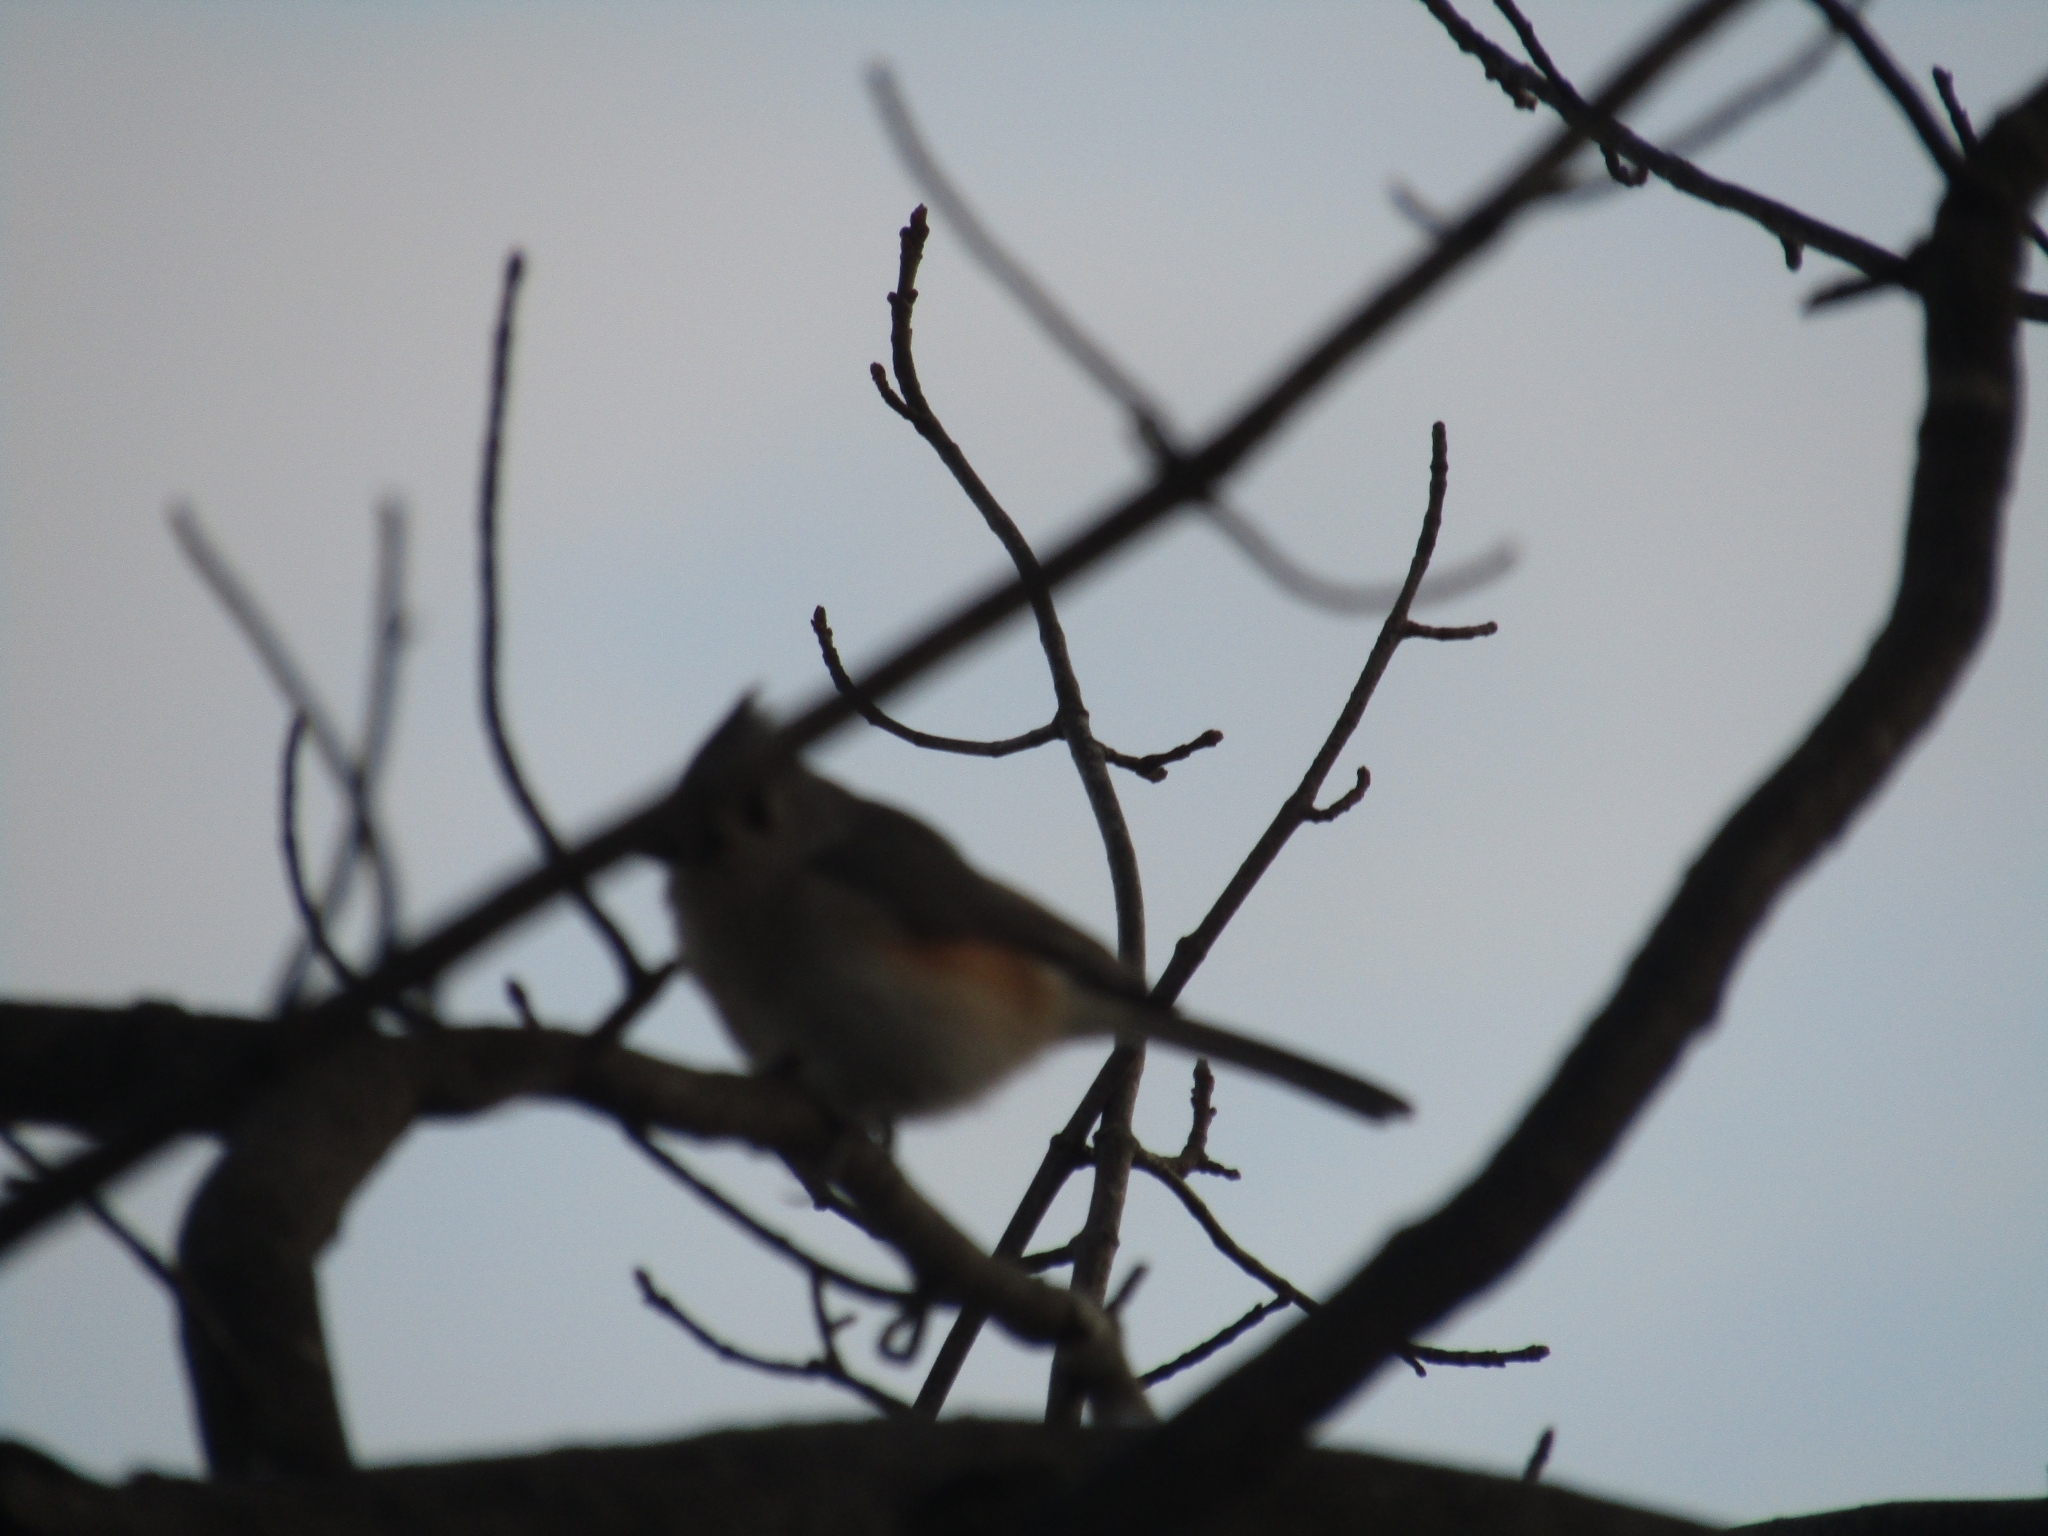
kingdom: Animalia
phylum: Chordata
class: Aves
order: Passeriformes
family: Paridae
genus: Baeolophus
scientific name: Baeolophus bicolor
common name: Tufted titmouse
